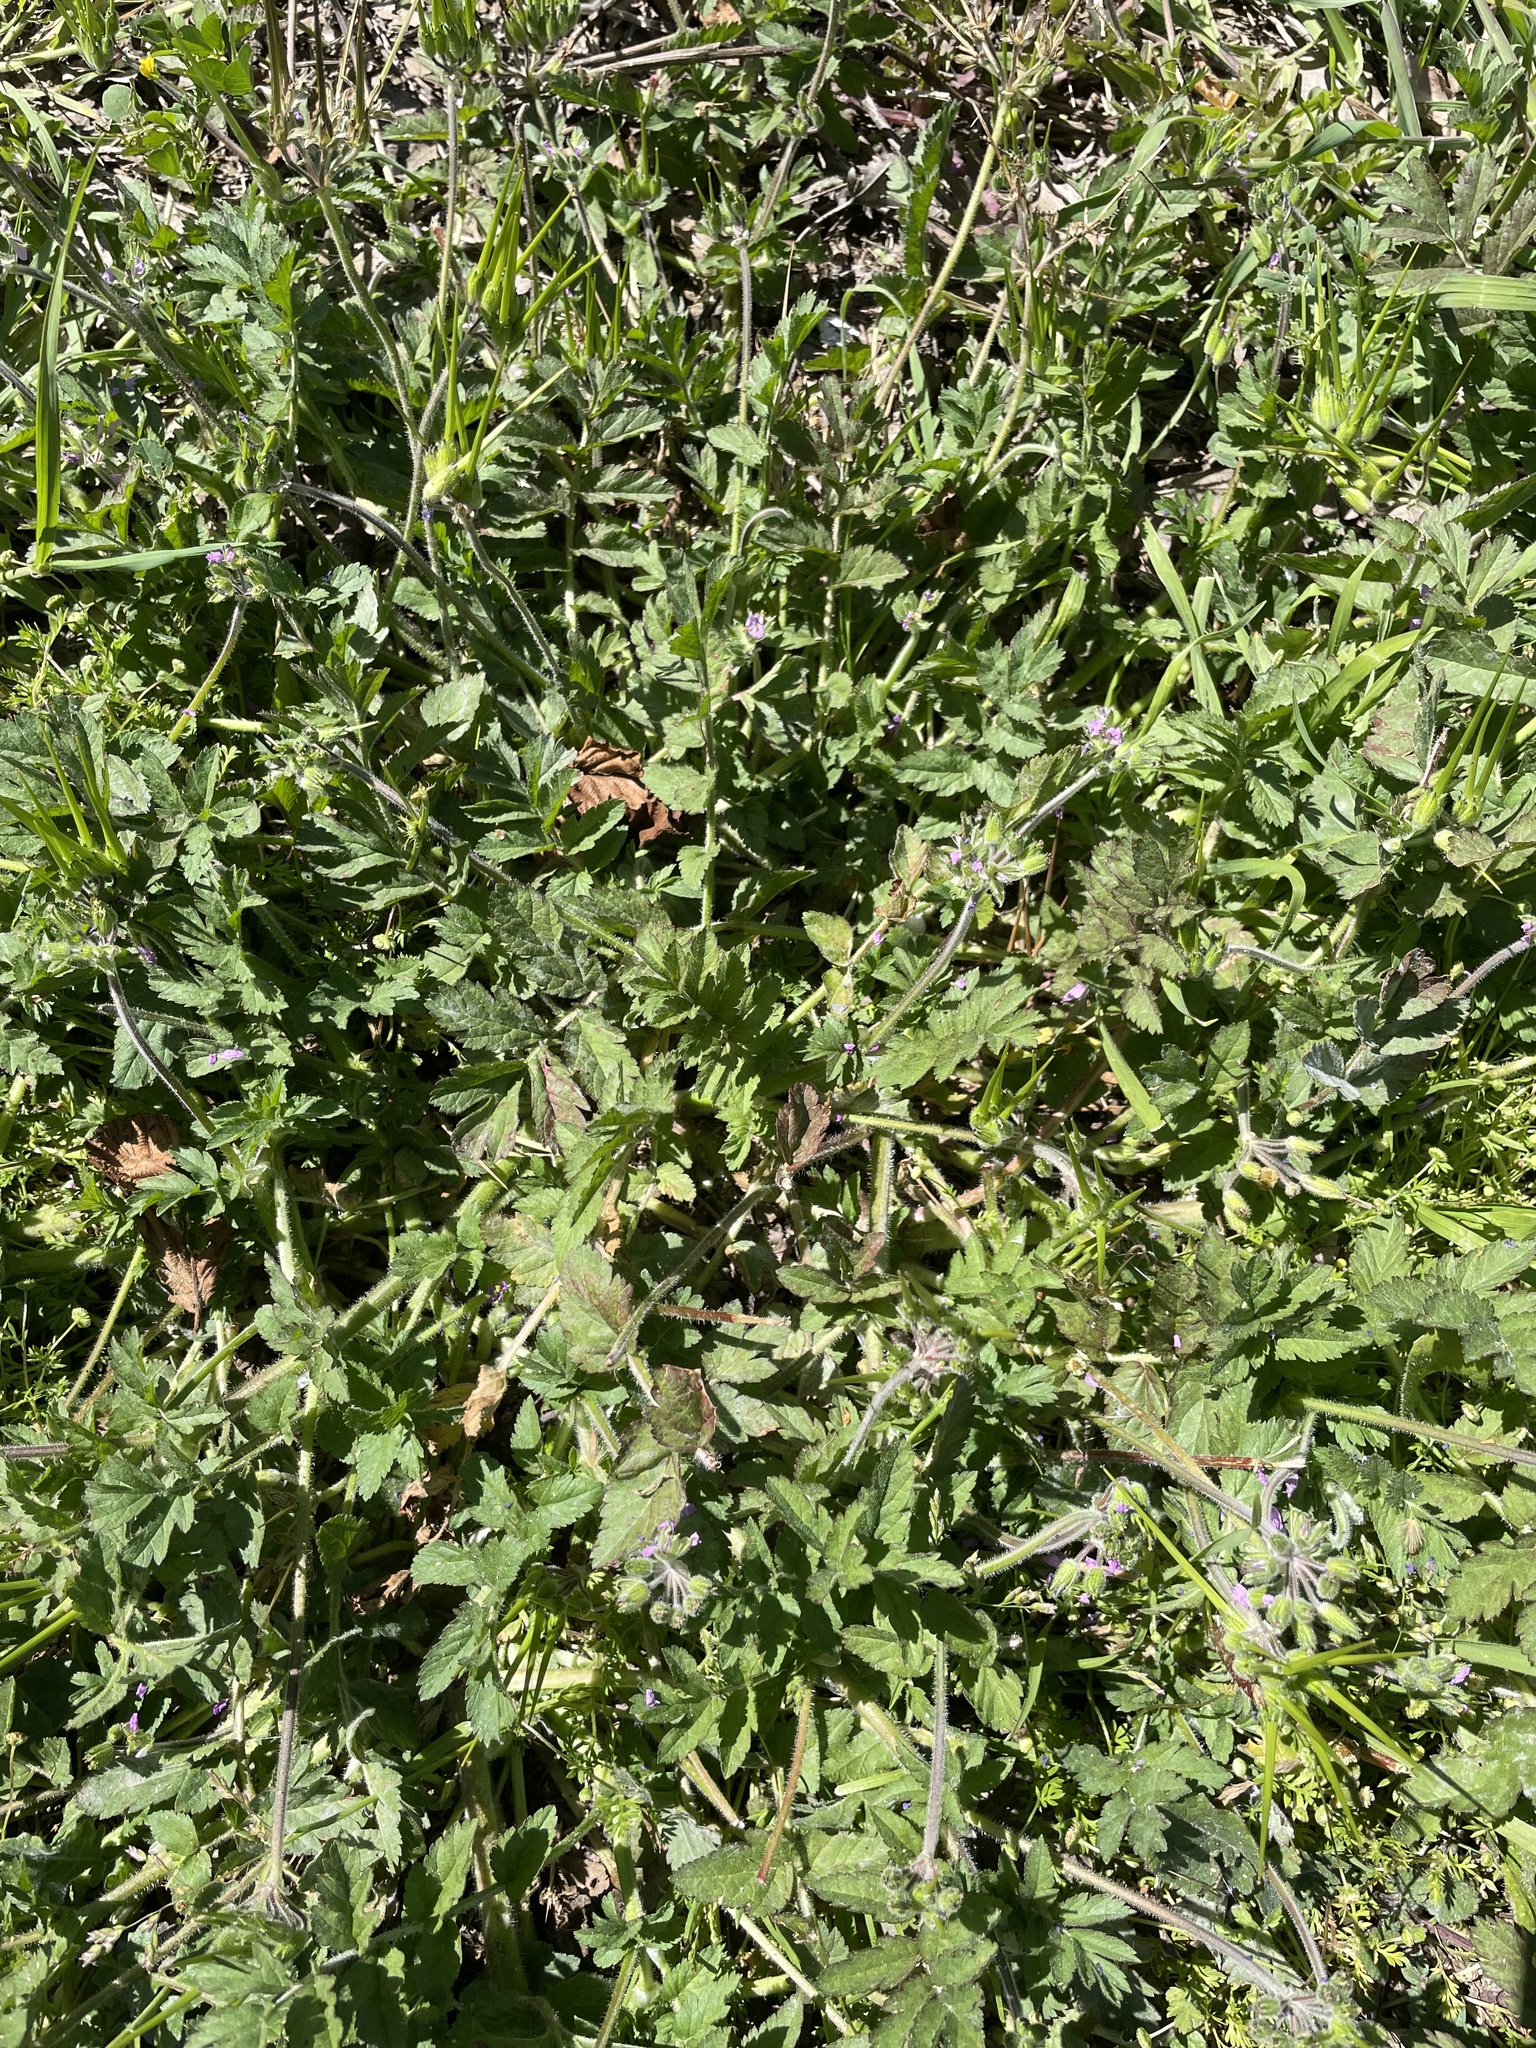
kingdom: Plantae
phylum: Tracheophyta
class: Magnoliopsida
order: Geraniales
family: Geraniaceae
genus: Erodium
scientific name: Erodium moschatum
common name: Musk stork's-bill
